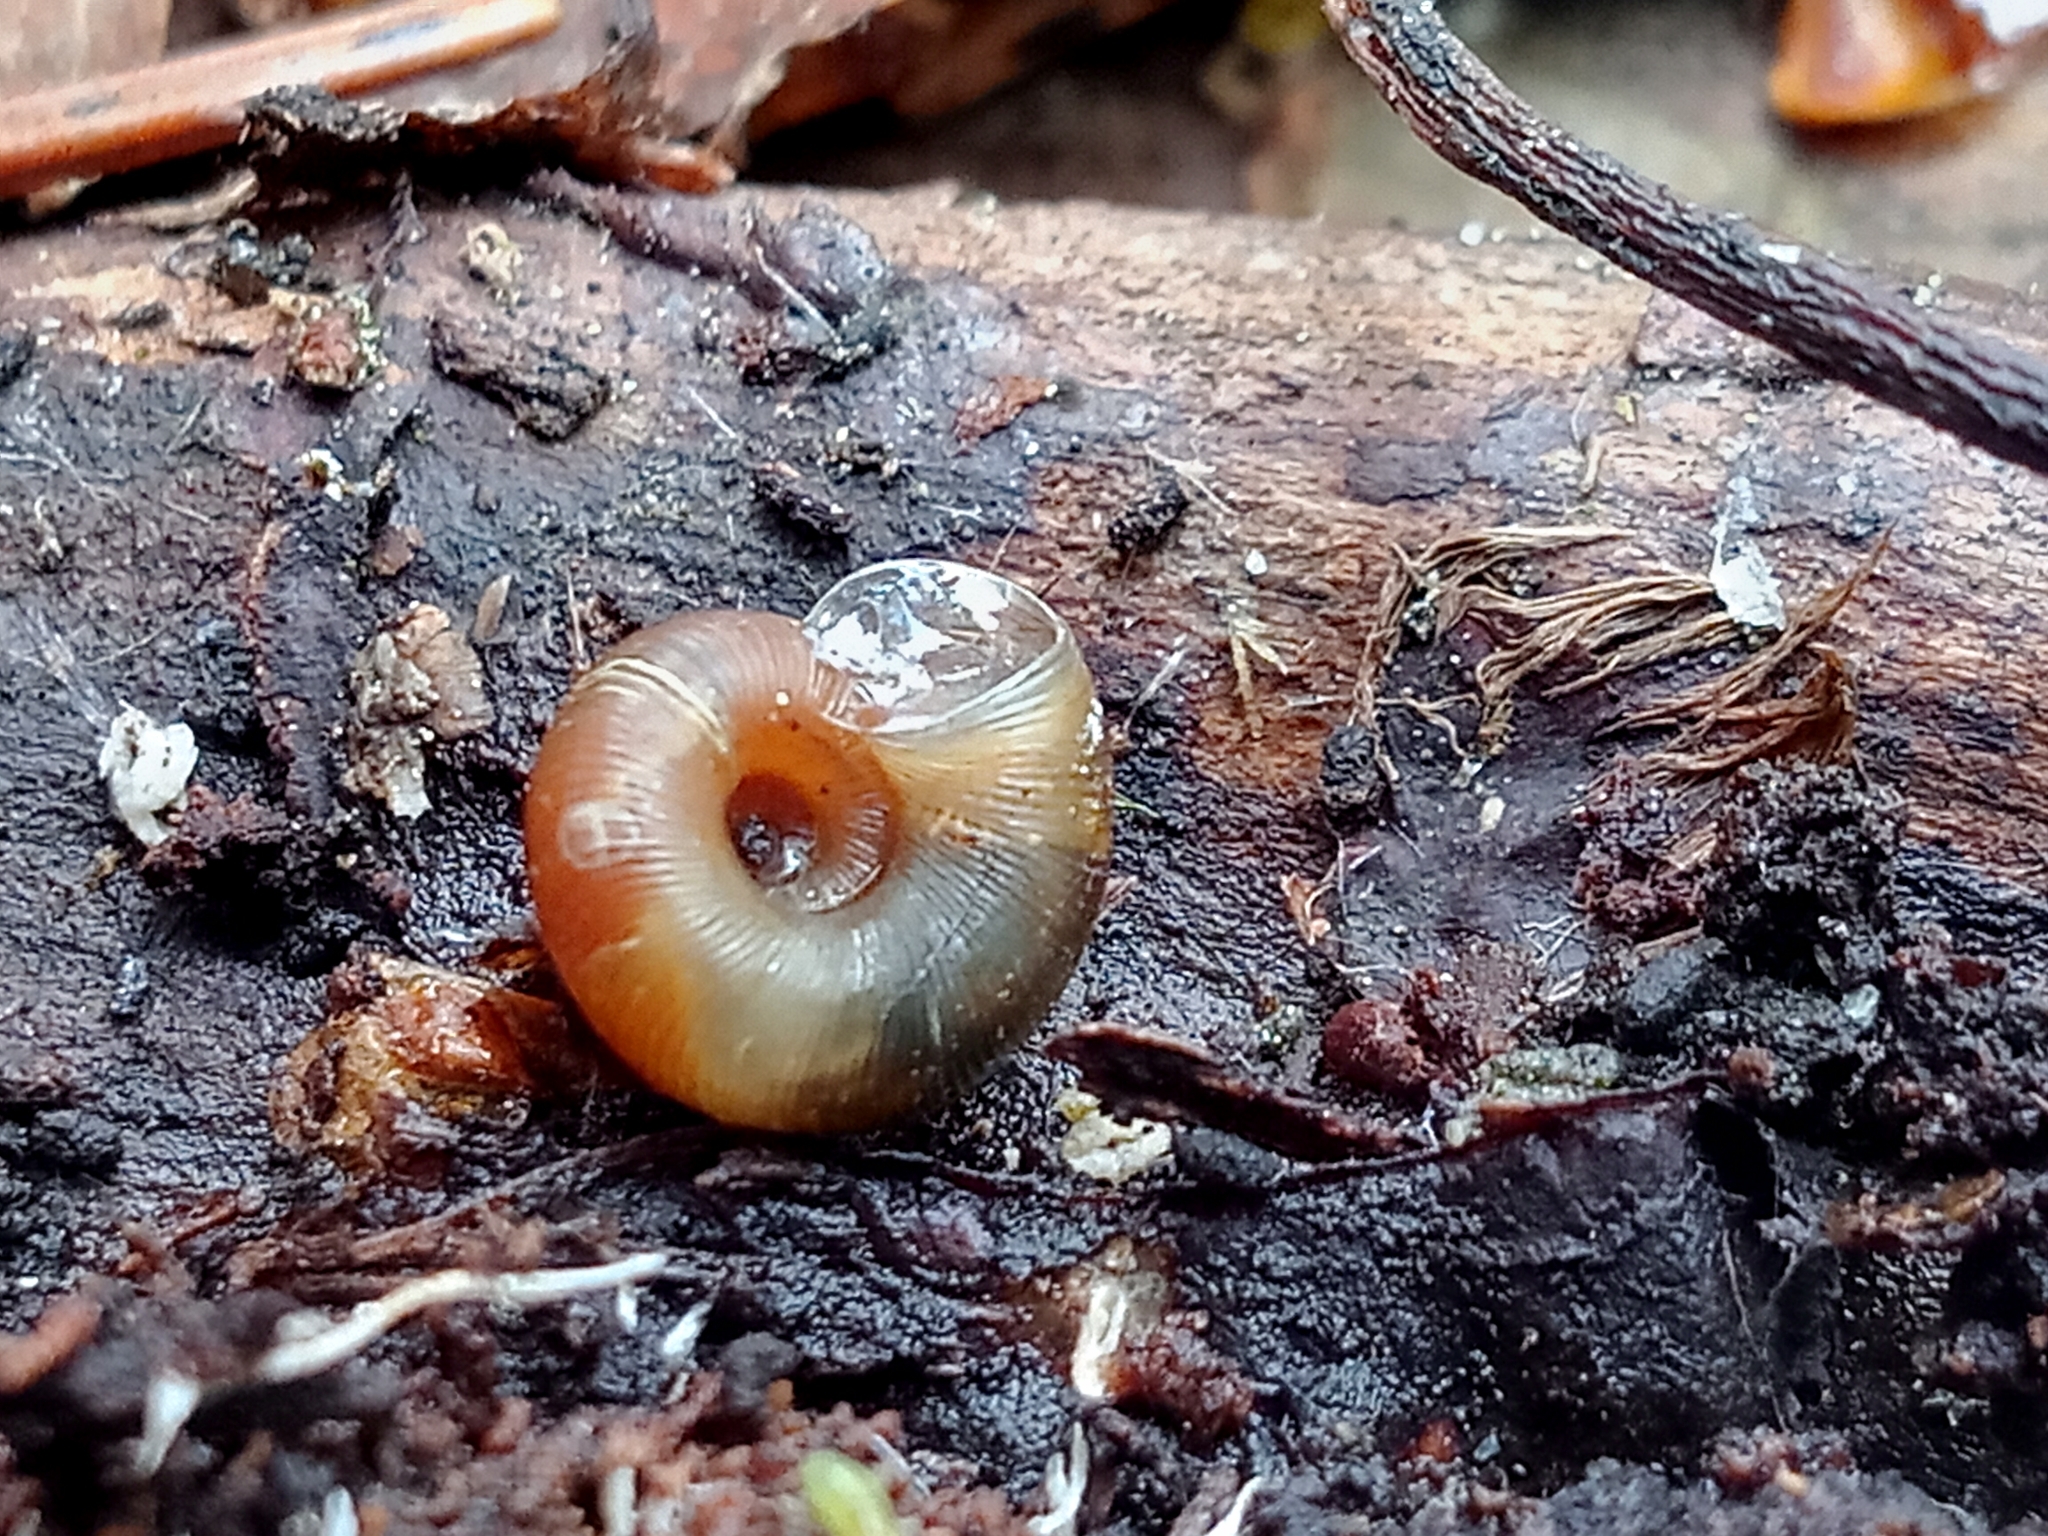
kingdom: Animalia
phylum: Mollusca
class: Gastropoda
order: Stylommatophora
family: Discidae
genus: Discus
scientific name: Discus ruderatus
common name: Brown disc snail
